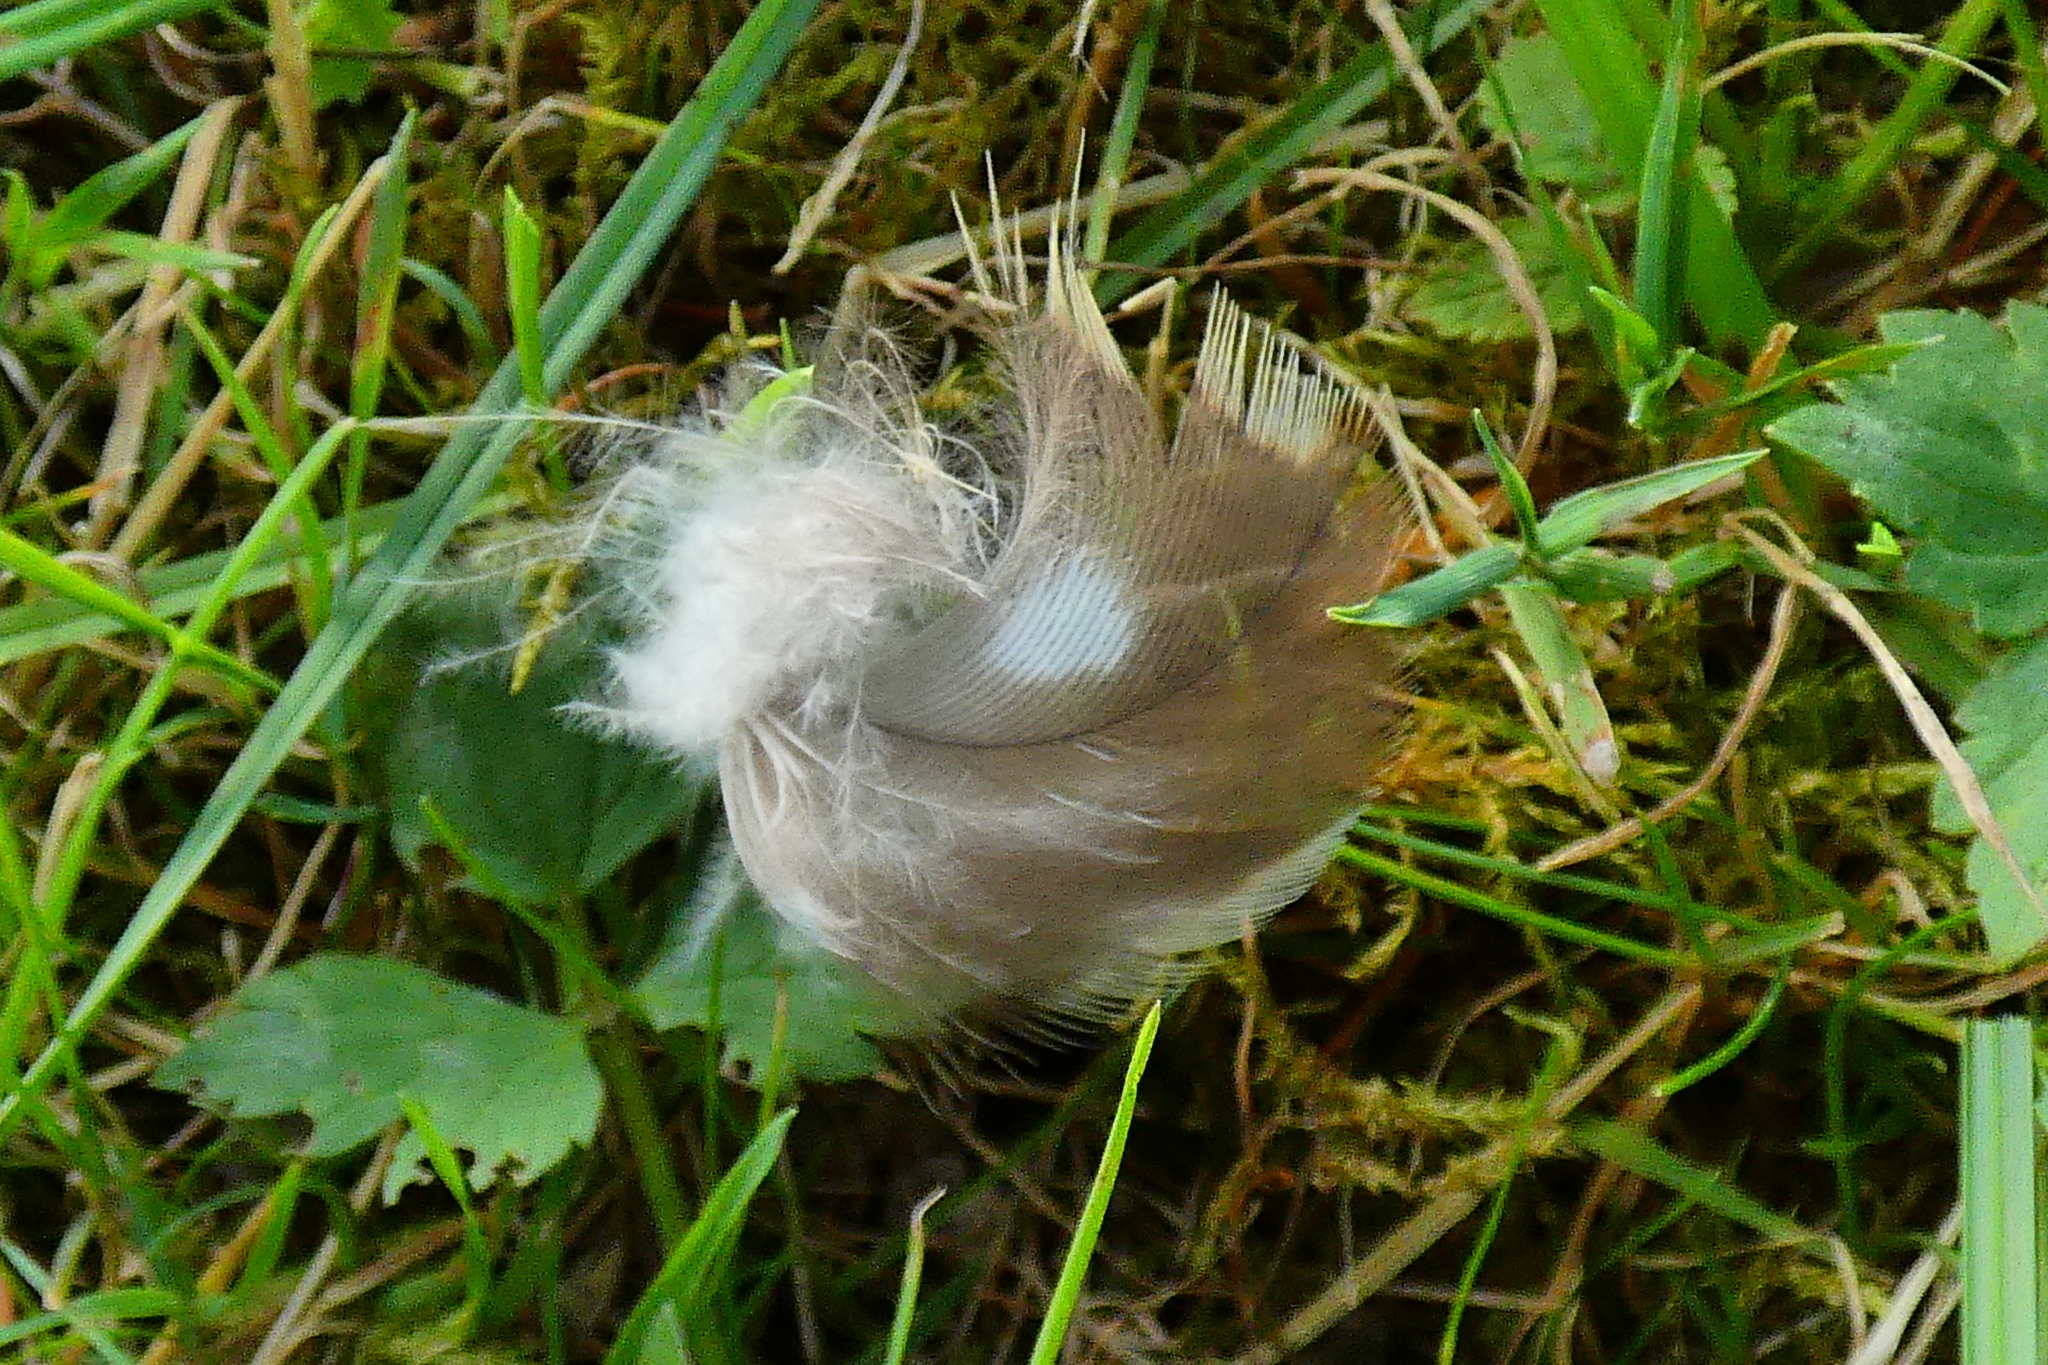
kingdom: Animalia
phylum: Chordata
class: Aves
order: Accipitriformes
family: Accipitridae
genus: Buteo
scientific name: Buteo buteo
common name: Common buzzard
